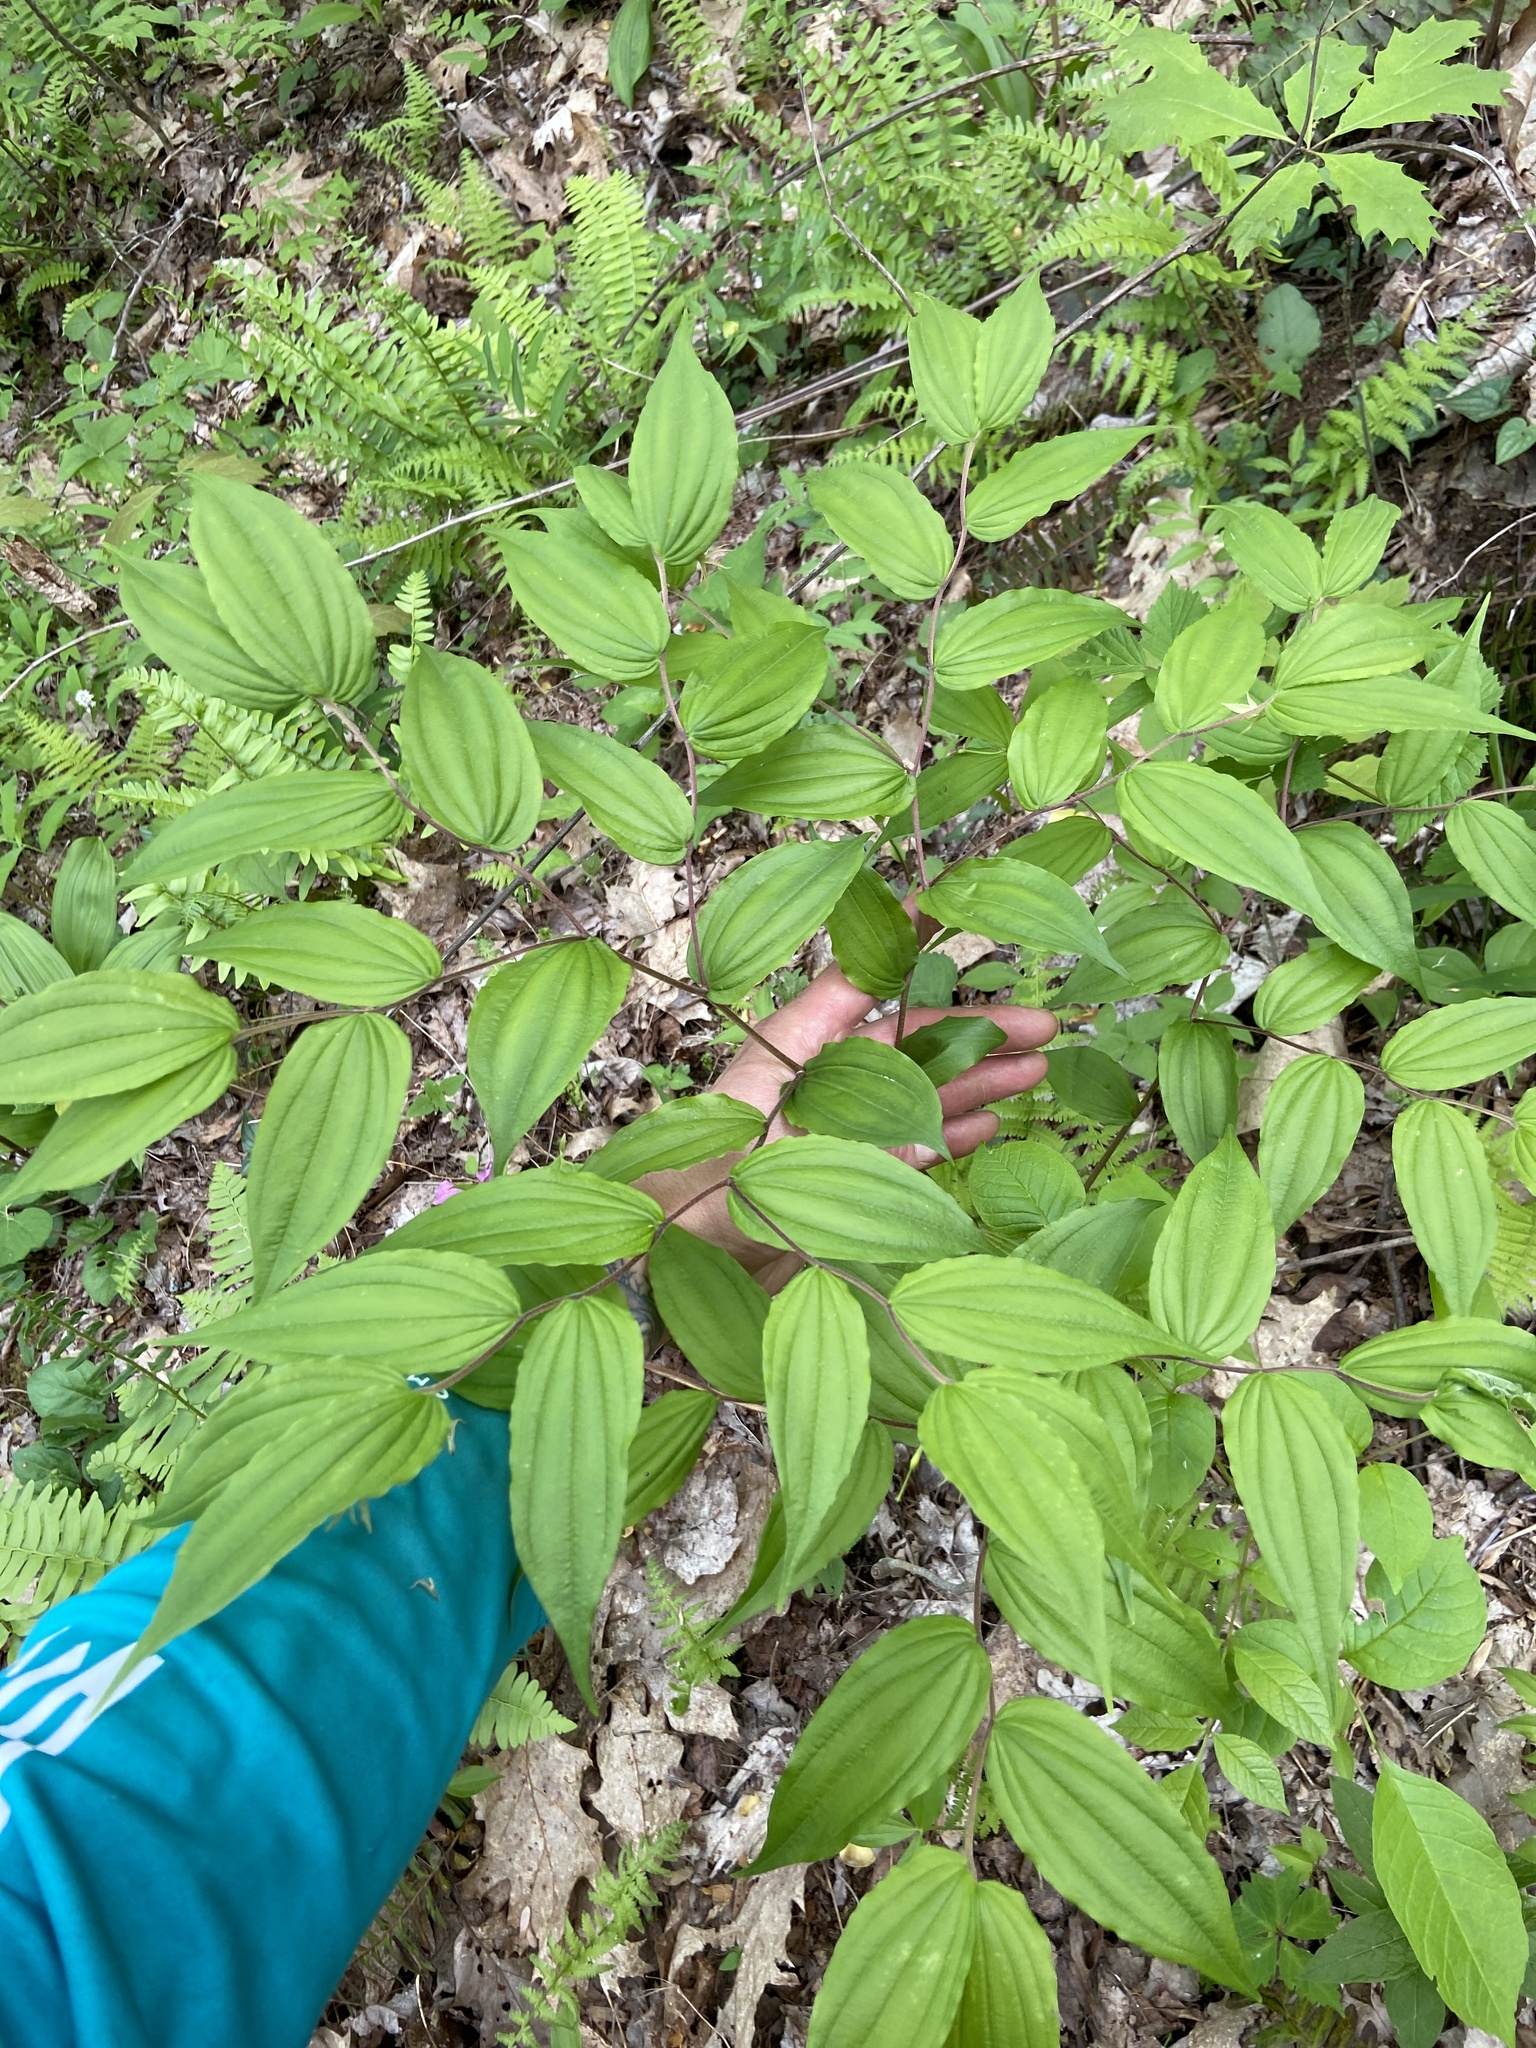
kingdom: Plantae
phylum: Tracheophyta
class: Liliopsida
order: Liliales
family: Liliaceae
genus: Prosartes
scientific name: Prosartes lanuginosa
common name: Hairy mandarin
